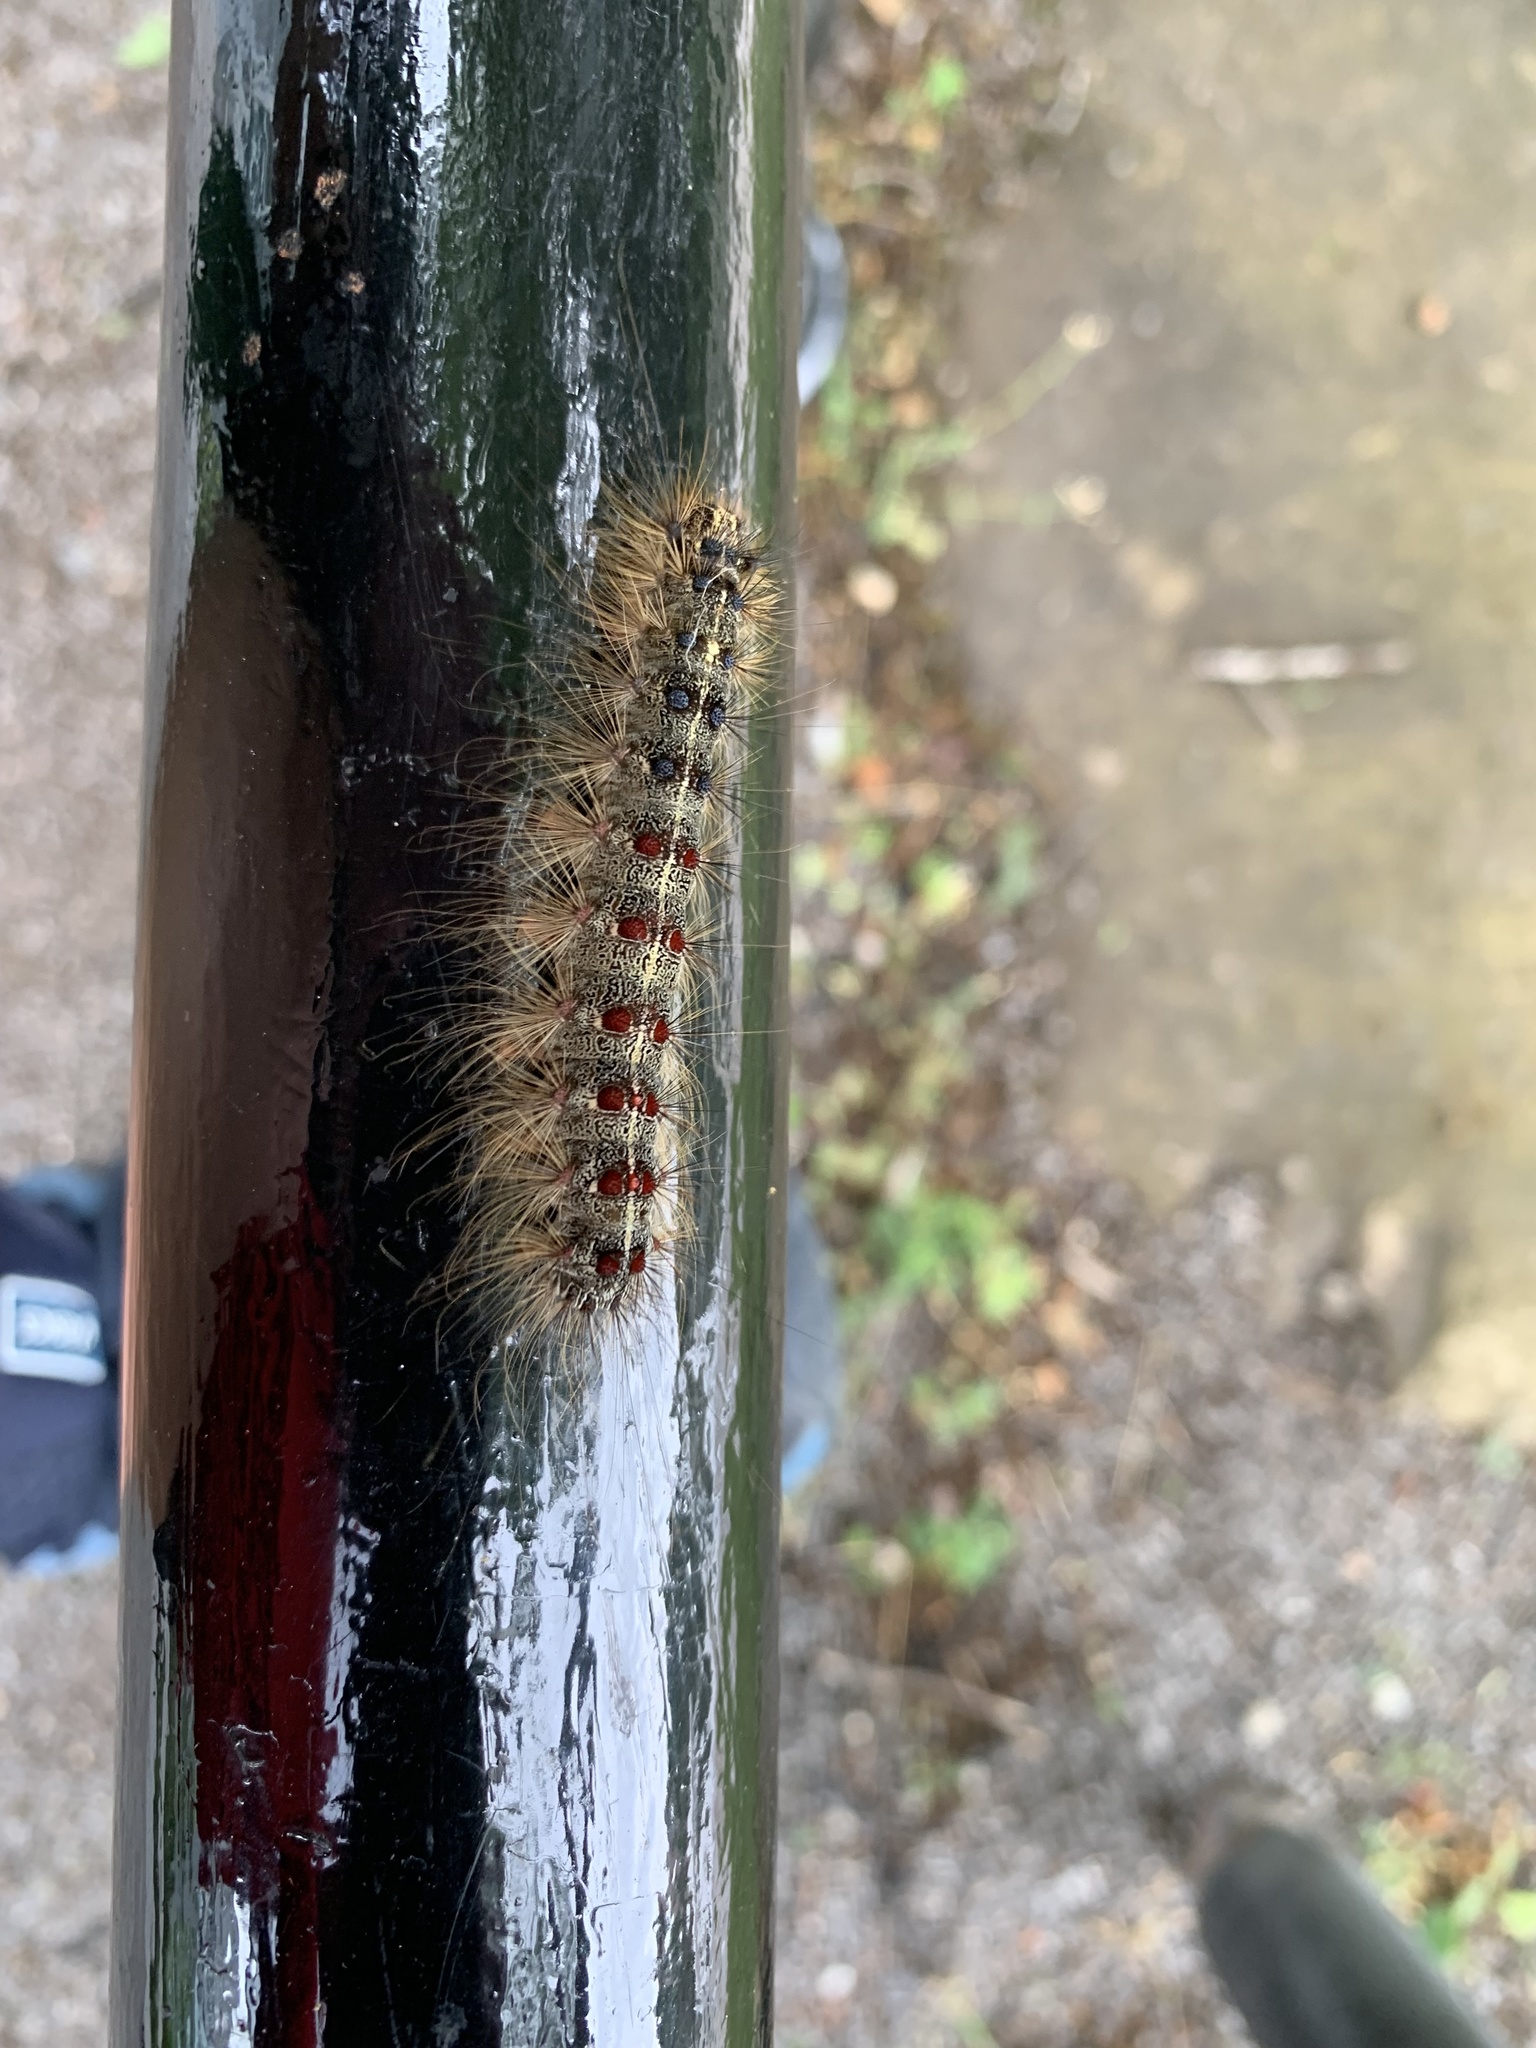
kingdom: Animalia
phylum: Arthropoda
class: Insecta
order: Lepidoptera
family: Erebidae
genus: Lymantria
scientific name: Lymantria dispar
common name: Gypsy moth
